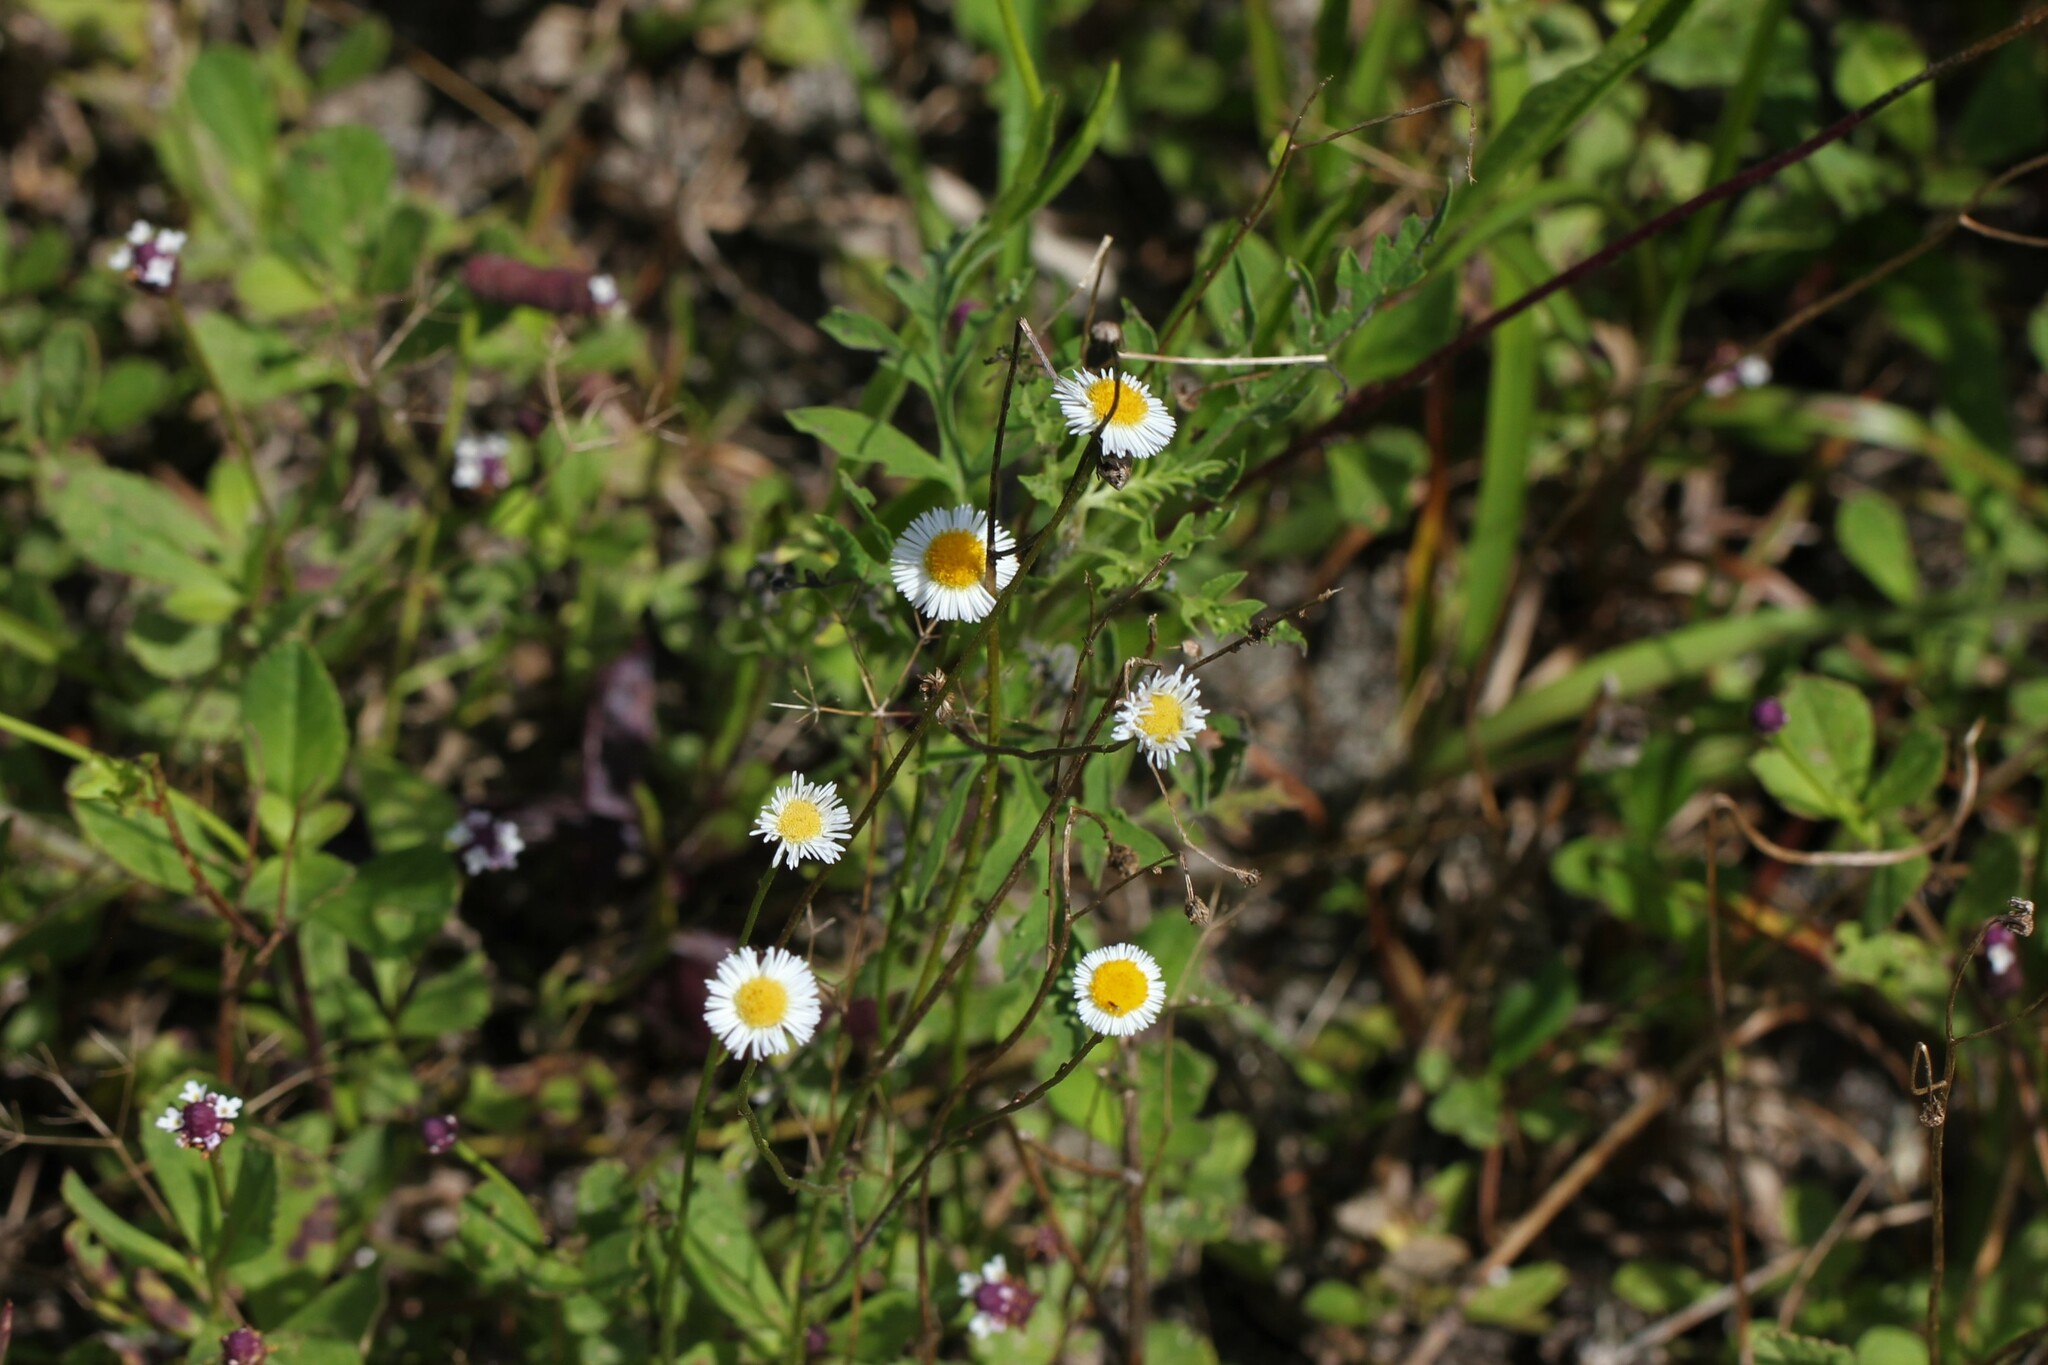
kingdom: Plantae
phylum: Tracheophyta
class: Magnoliopsida
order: Asterales
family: Asteraceae
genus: Erigeron
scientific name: Erigeron quercifolius
